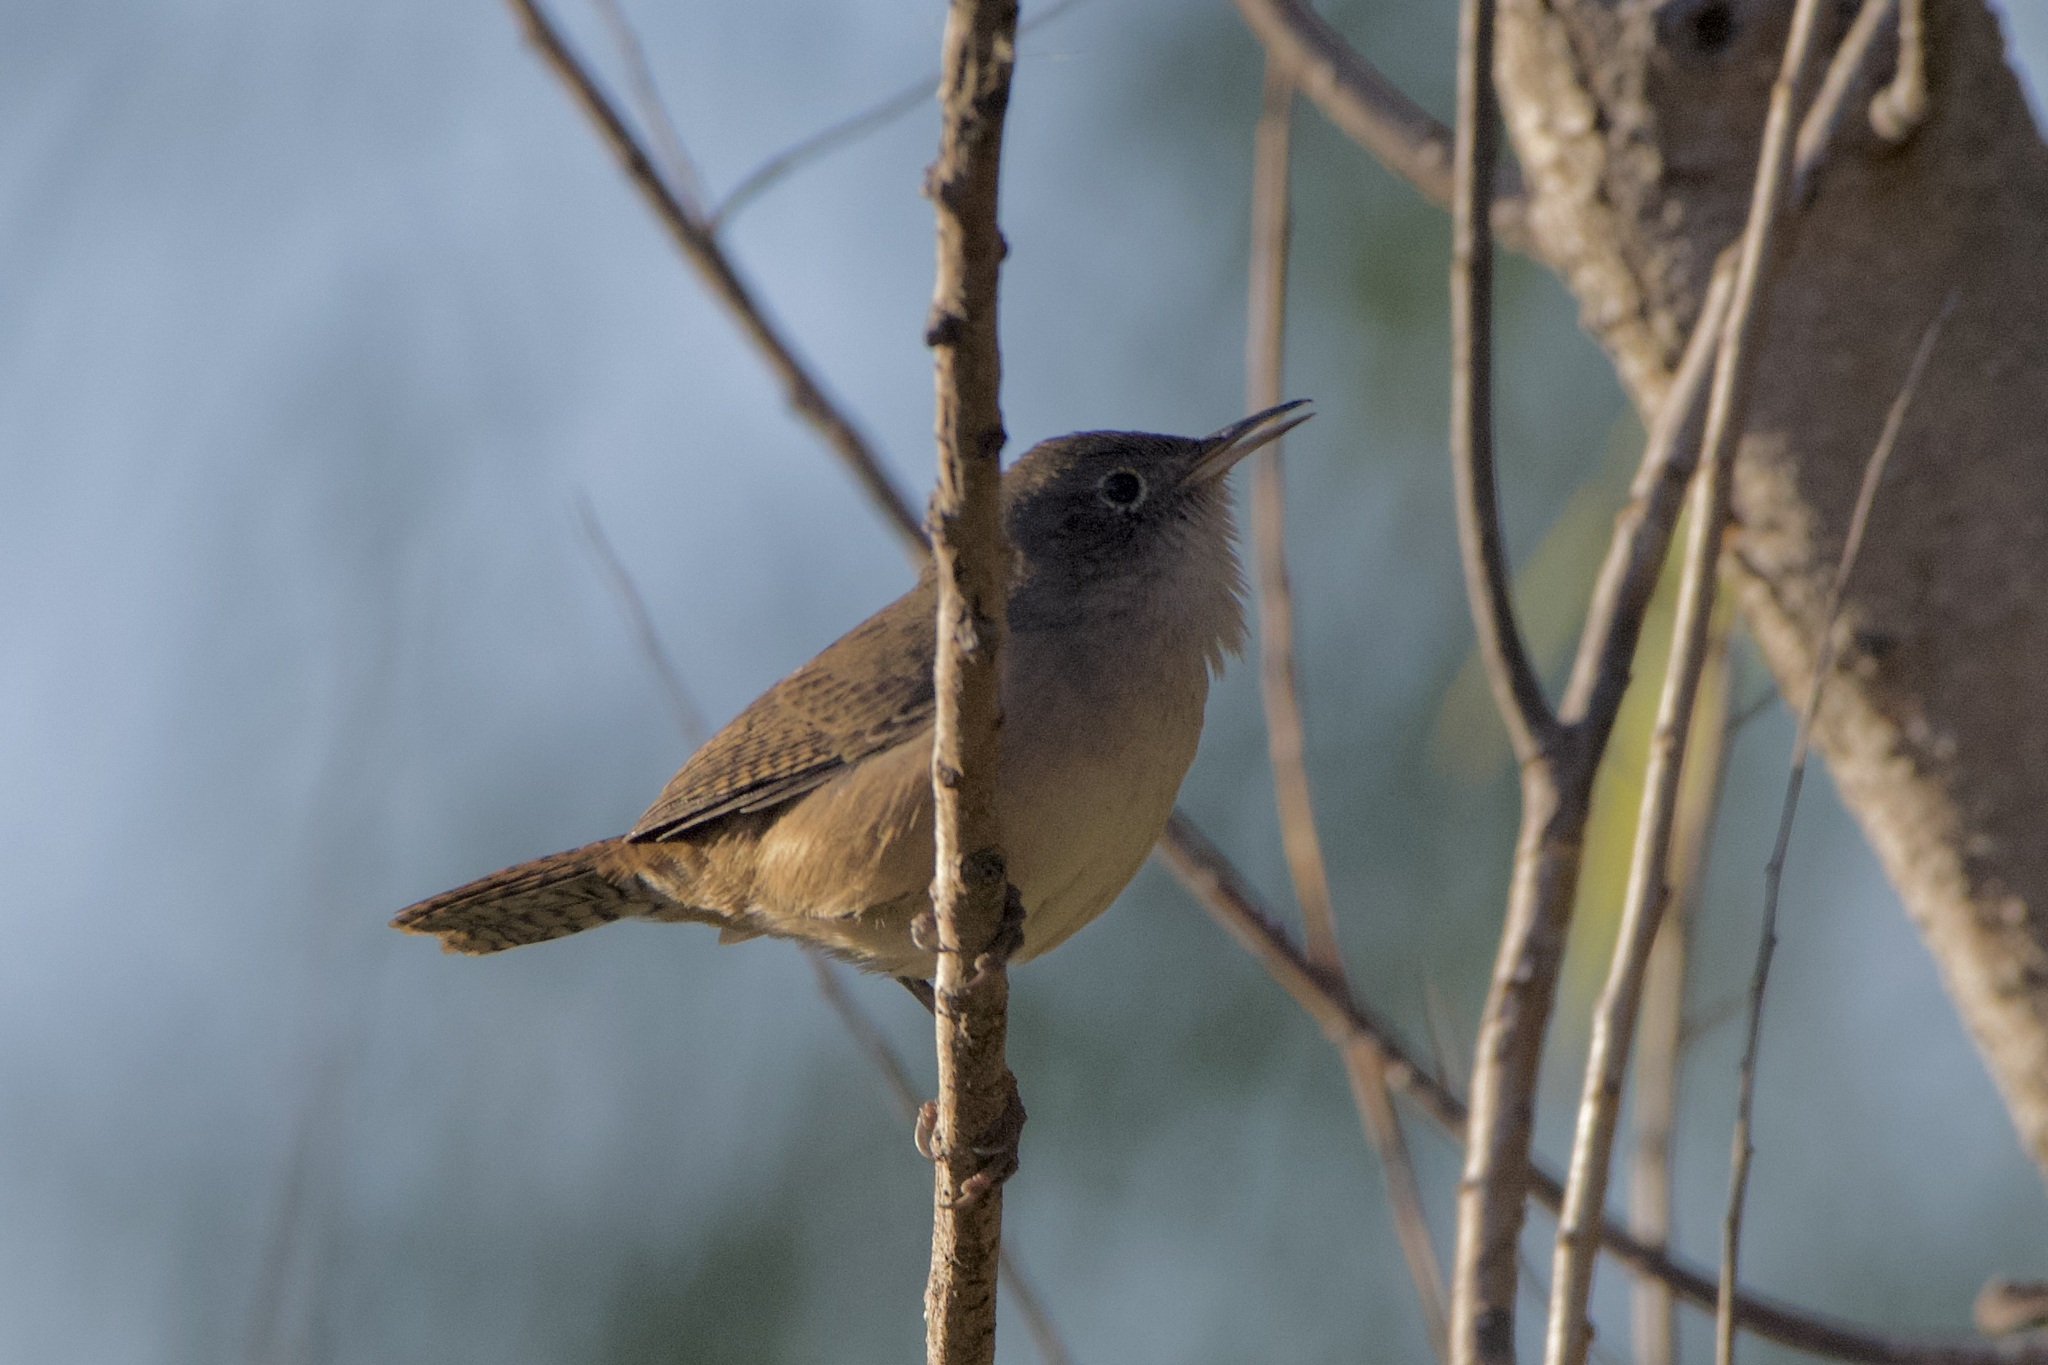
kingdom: Animalia
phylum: Chordata
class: Aves
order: Passeriformes
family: Troglodytidae
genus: Troglodytes
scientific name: Troglodytes aedon
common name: House wren
